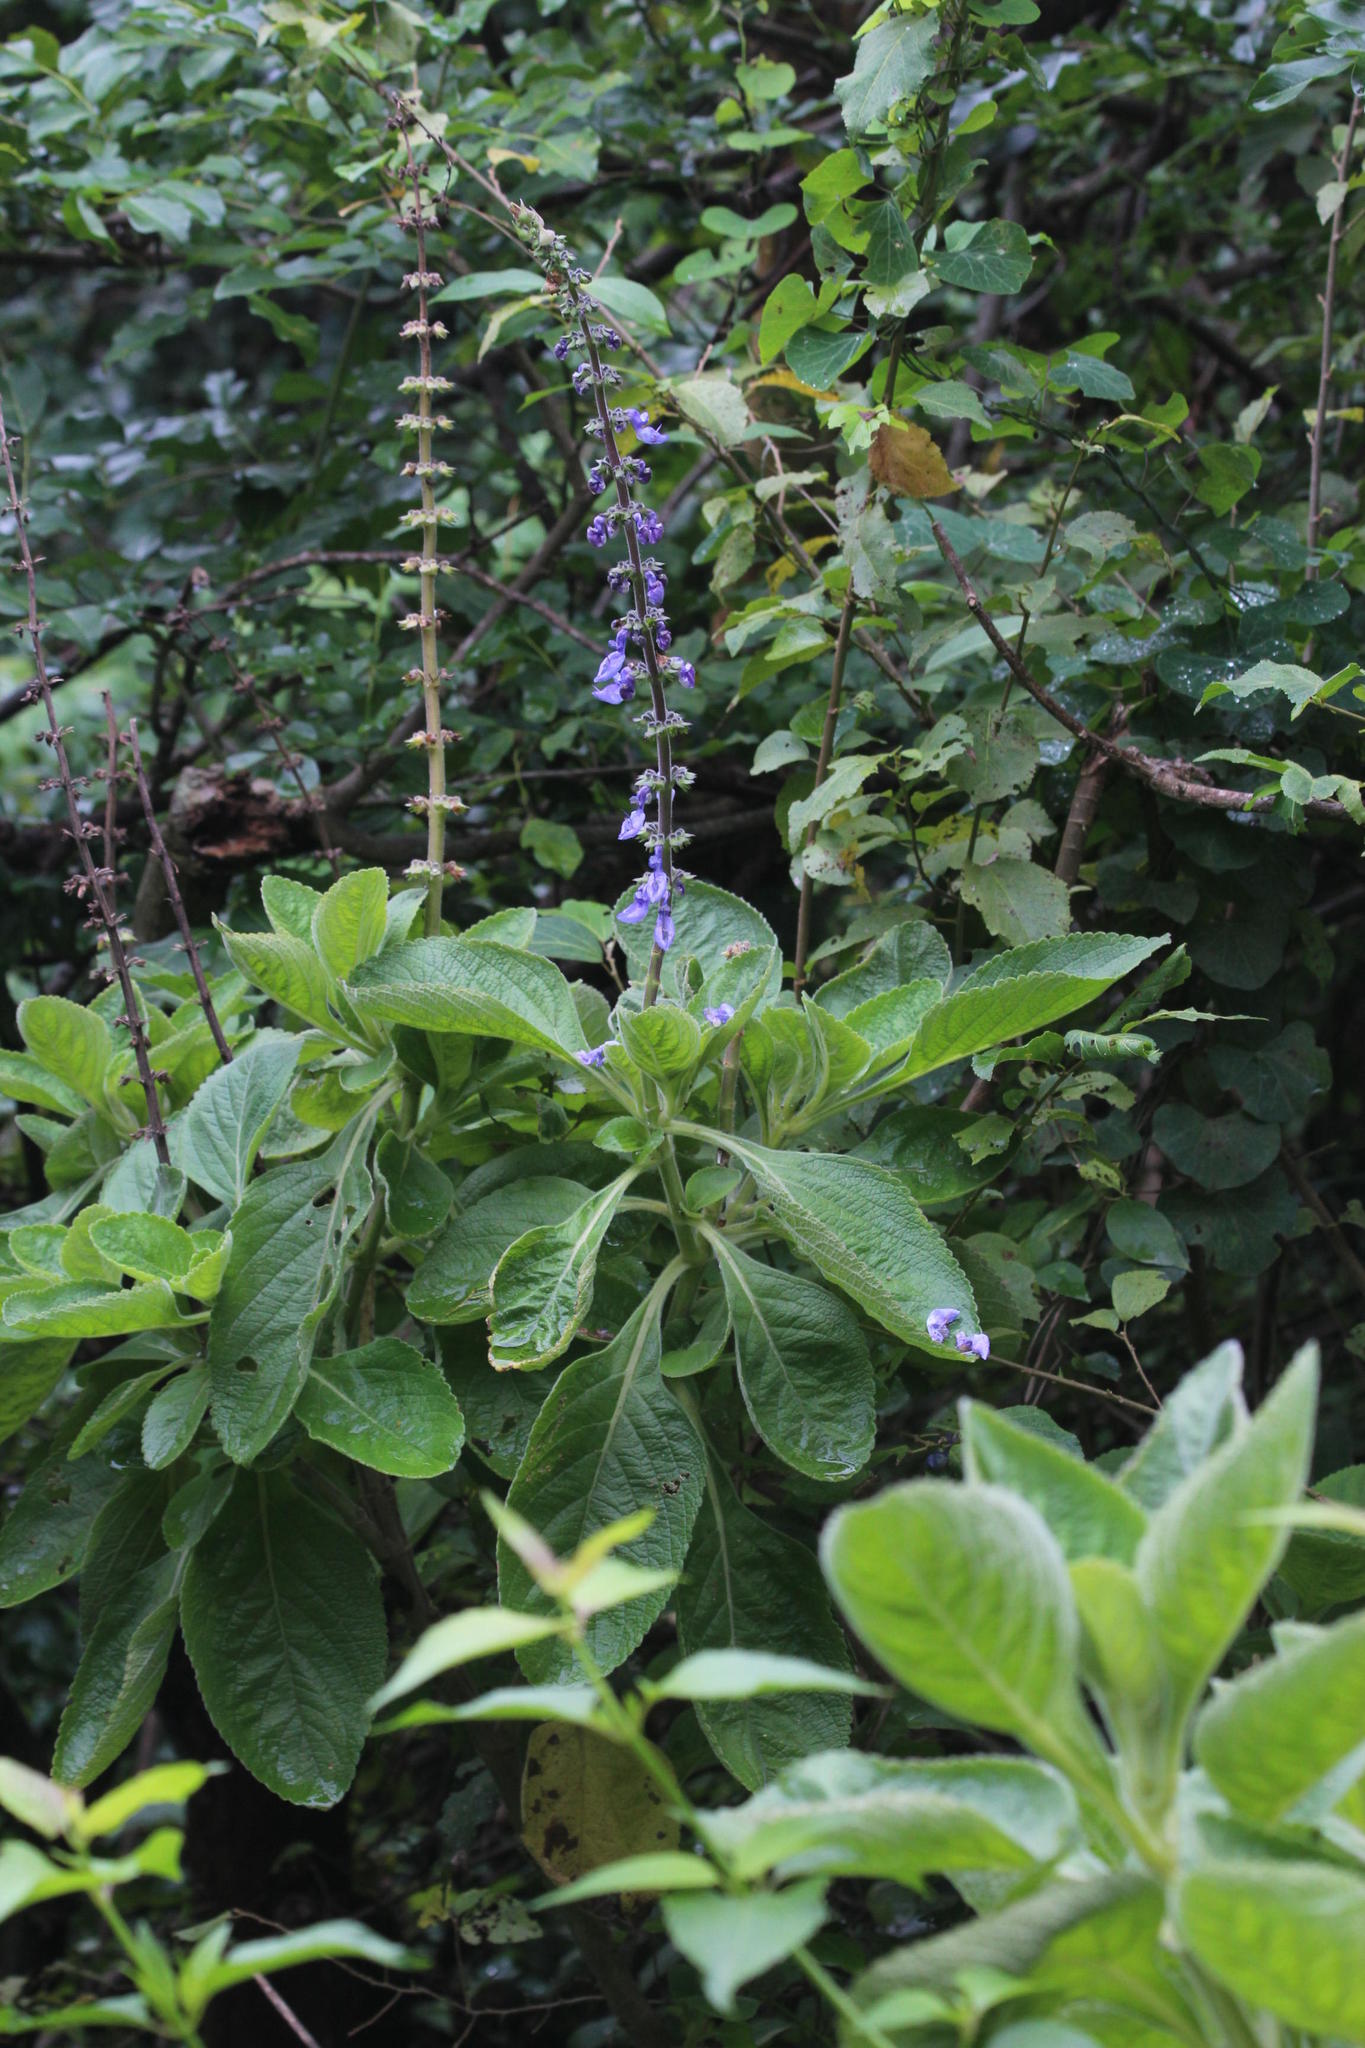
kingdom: Plantae
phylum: Tracheophyta
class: Magnoliopsida
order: Lamiales
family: Lamiaceae
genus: Coleus
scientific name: Coleus barbatus
